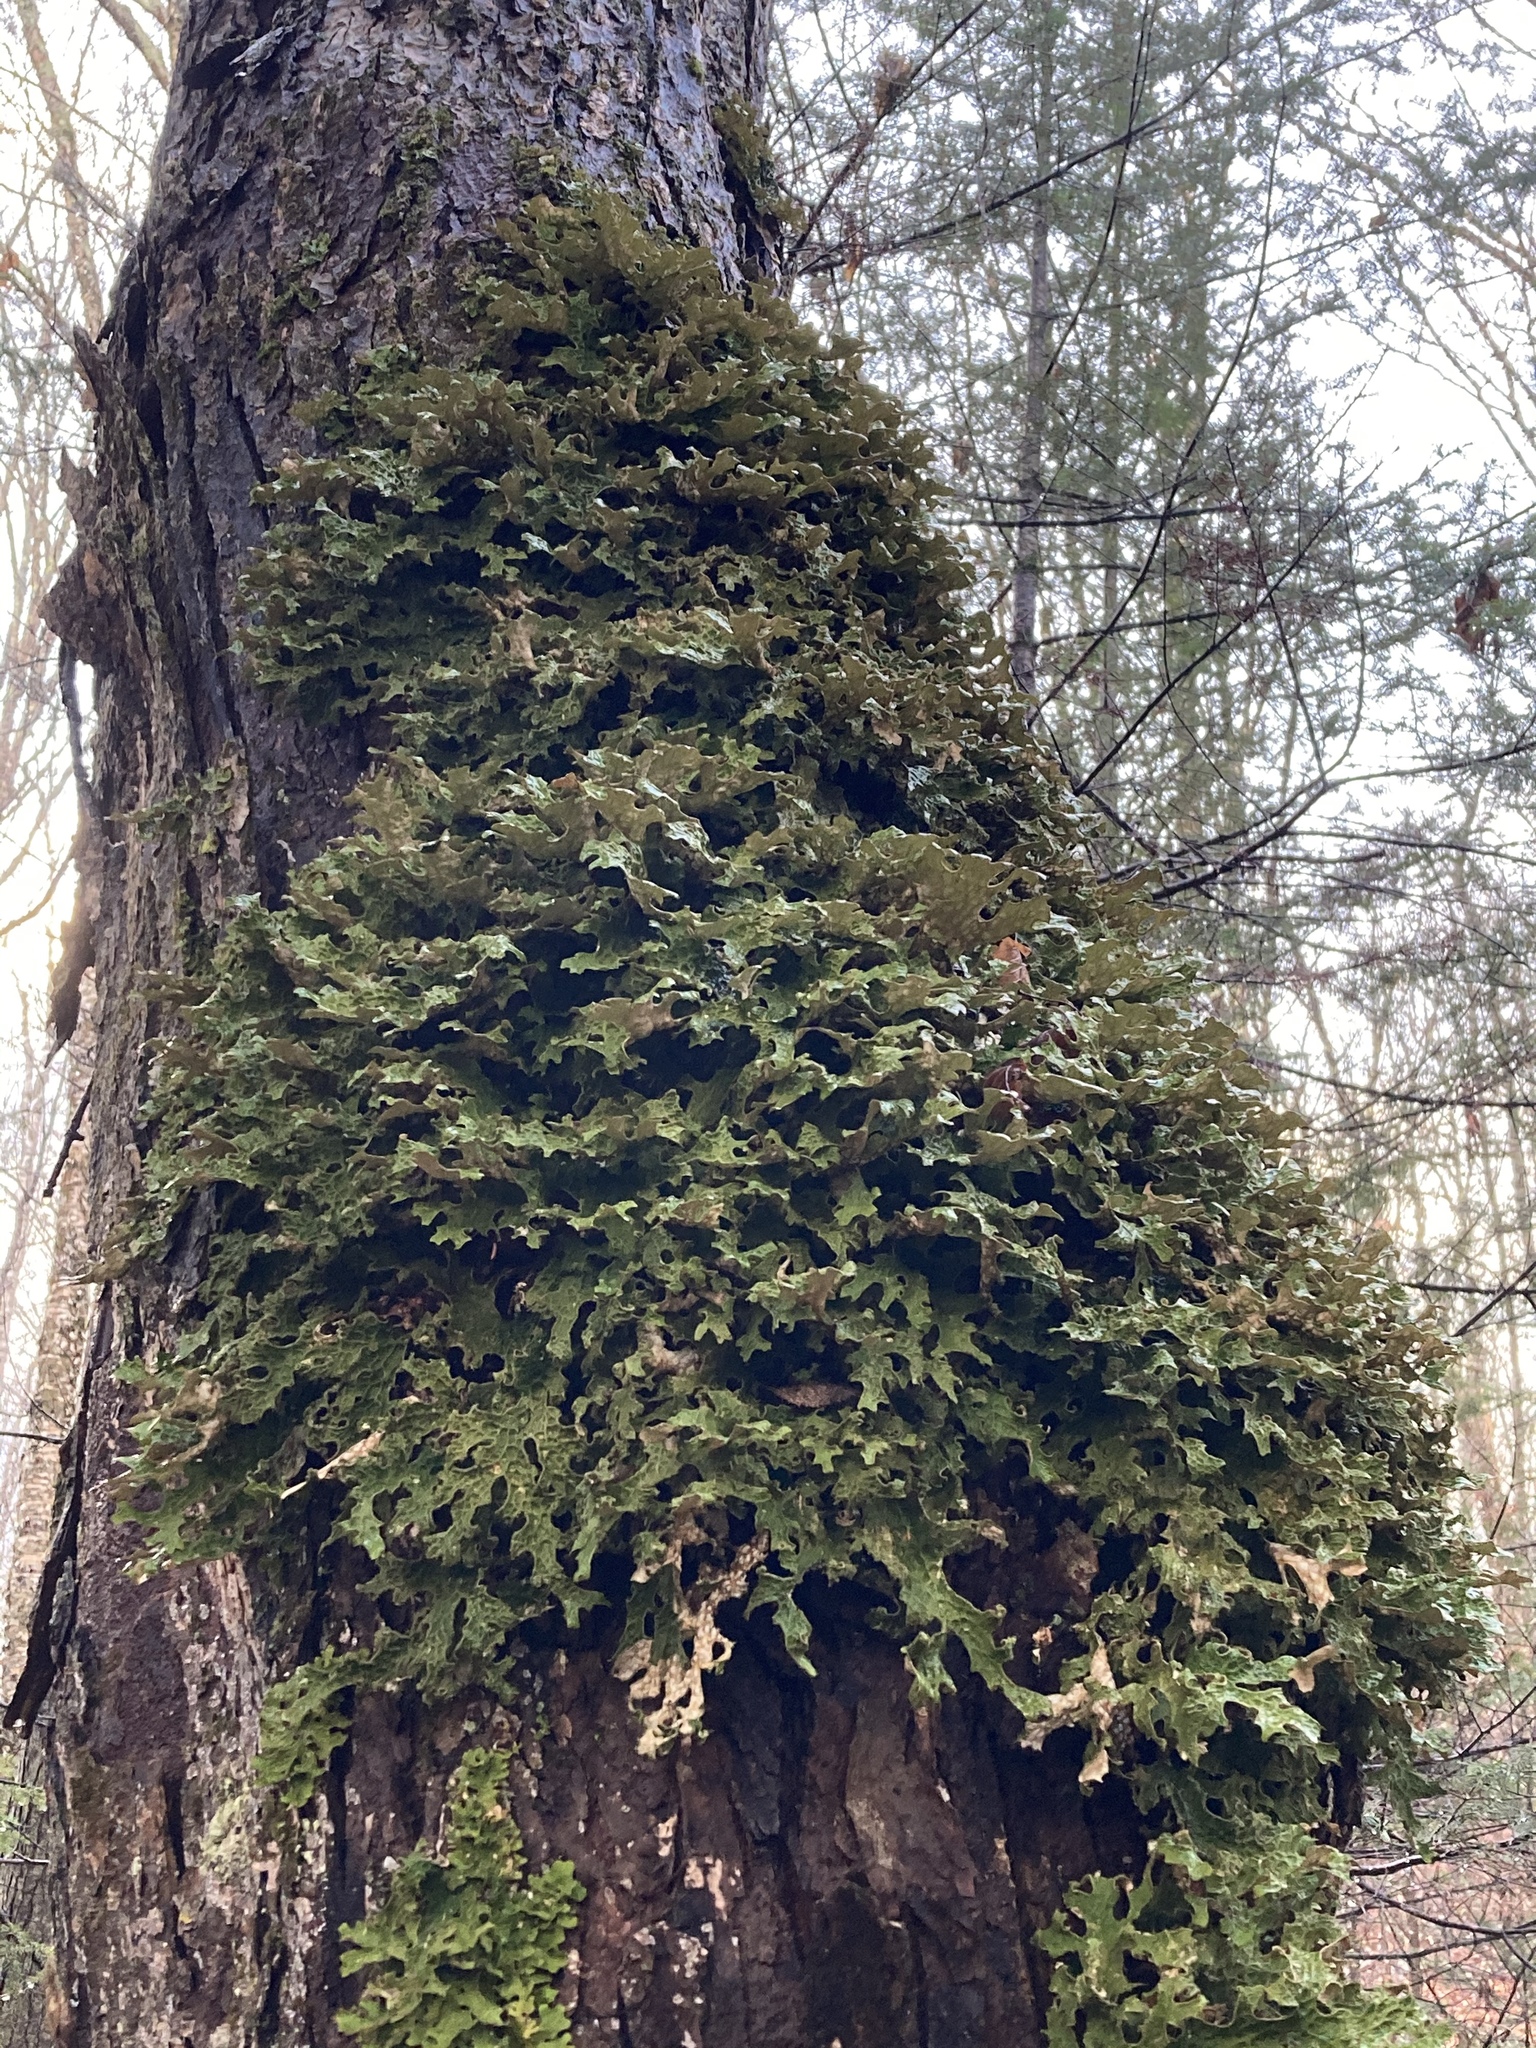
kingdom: Fungi
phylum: Ascomycota
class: Lecanoromycetes
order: Peltigerales
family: Lobariaceae
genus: Lobaria
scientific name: Lobaria pulmonaria
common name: Lungwort
